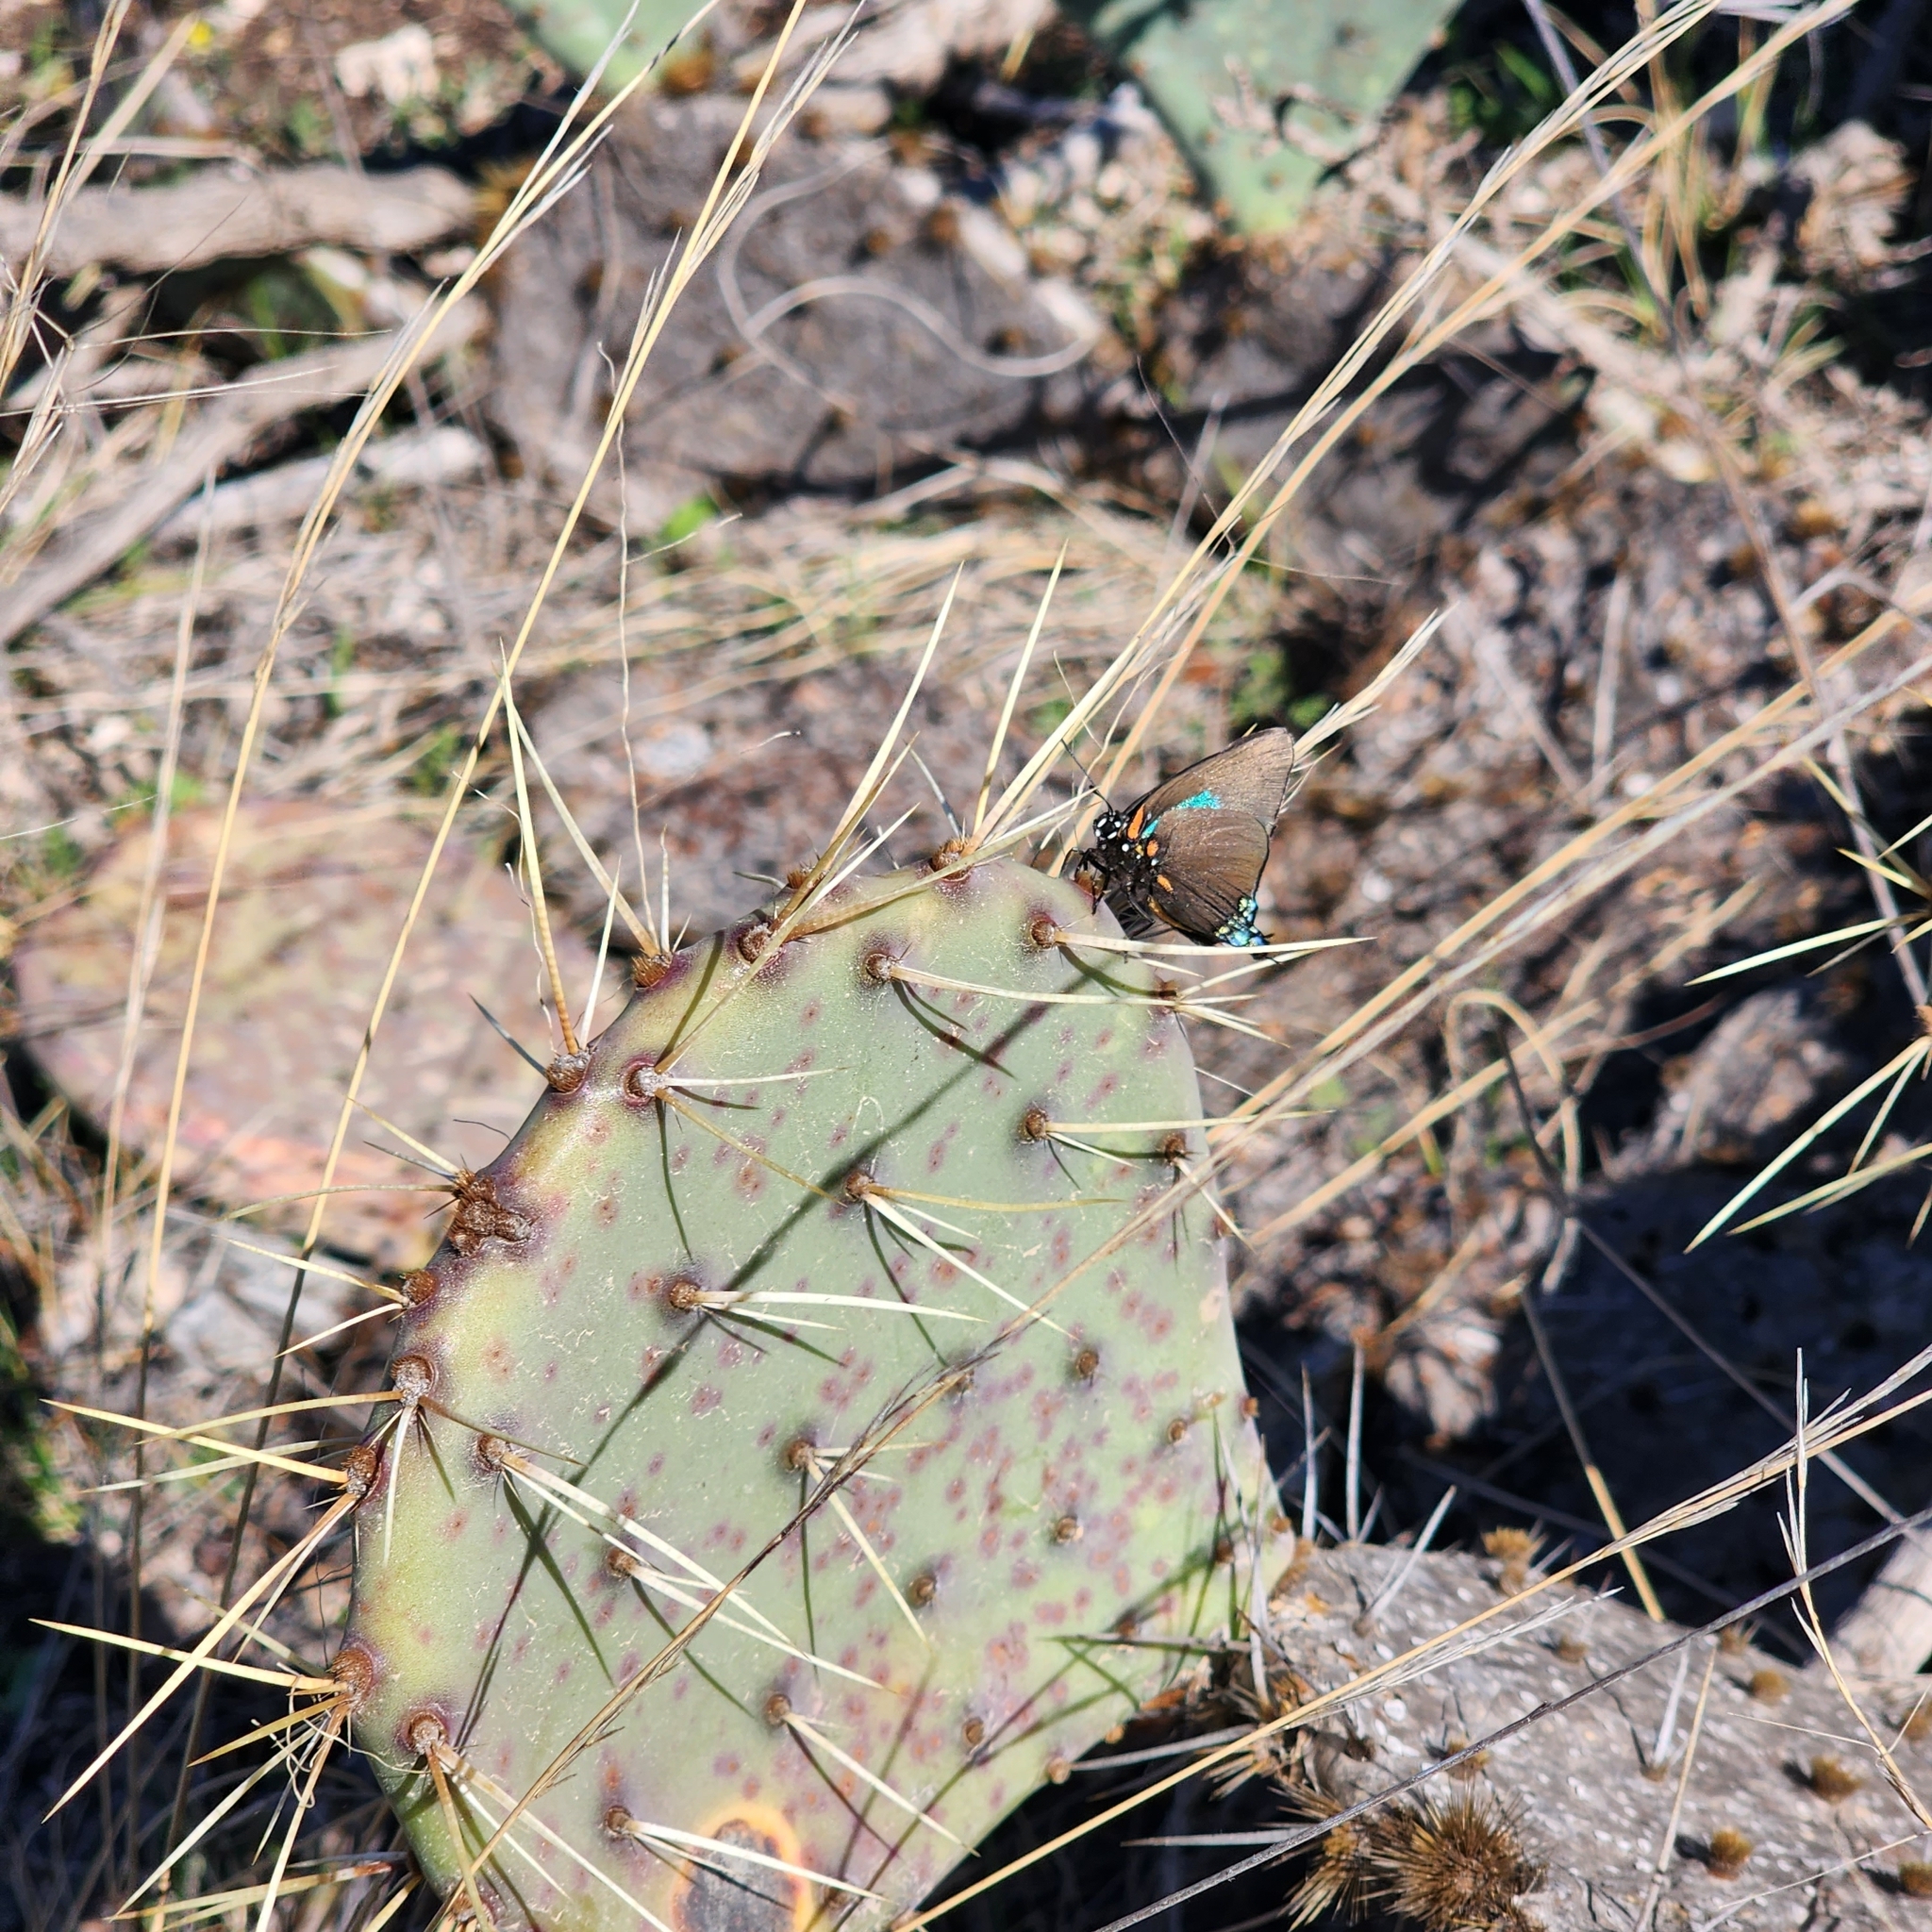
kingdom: Animalia
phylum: Arthropoda
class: Insecta
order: Lepidoptera
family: Lycaenidae
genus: Atlides
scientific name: Atlides halesus
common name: Great purple hairstreak
